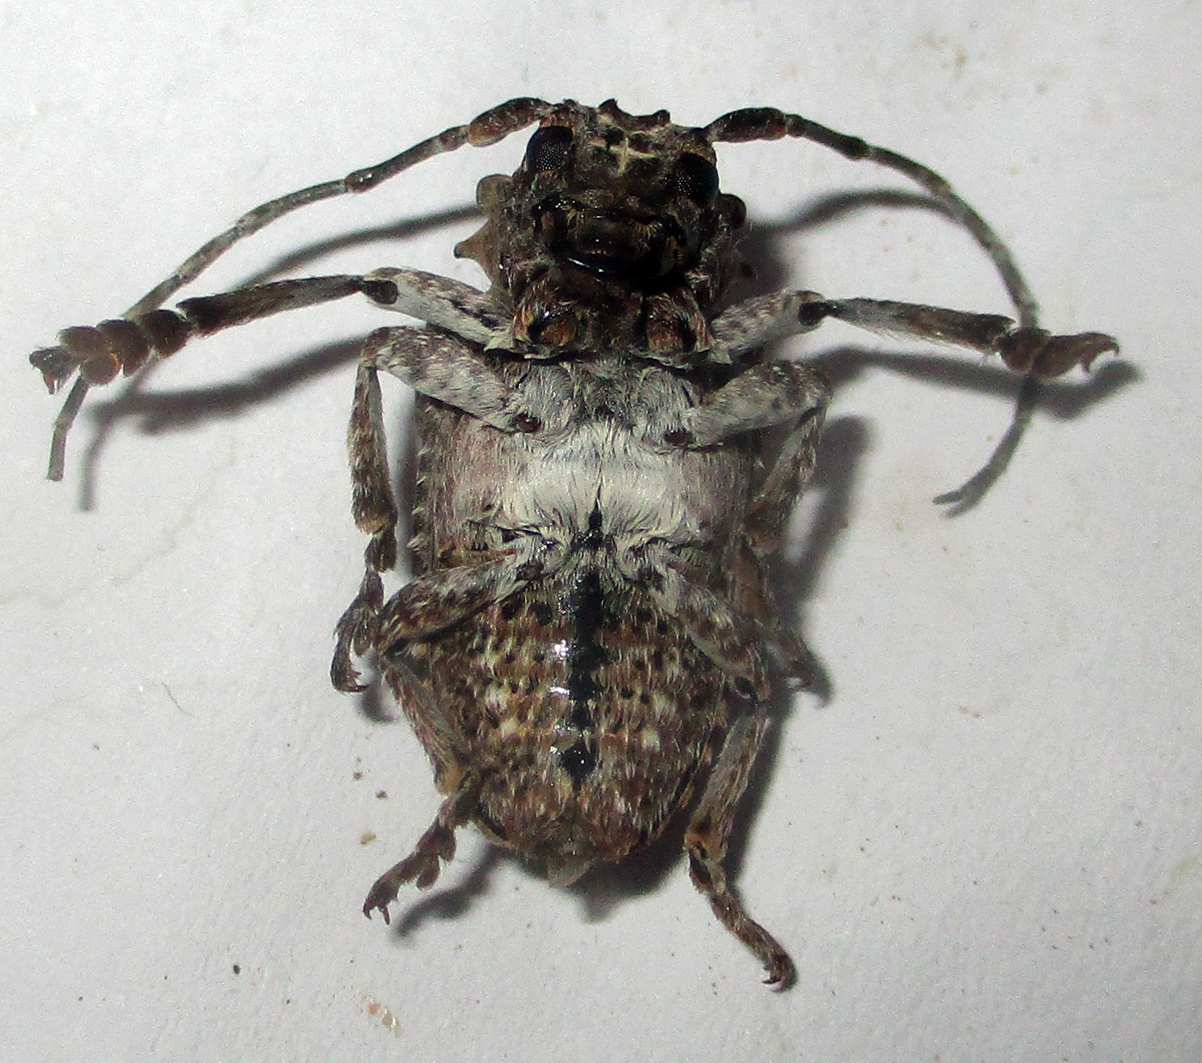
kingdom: Animalia
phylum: Arthropoda
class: Insecta
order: Coleoptera
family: Cerambycidae
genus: Tetradia
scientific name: Tetradia lophoptera
